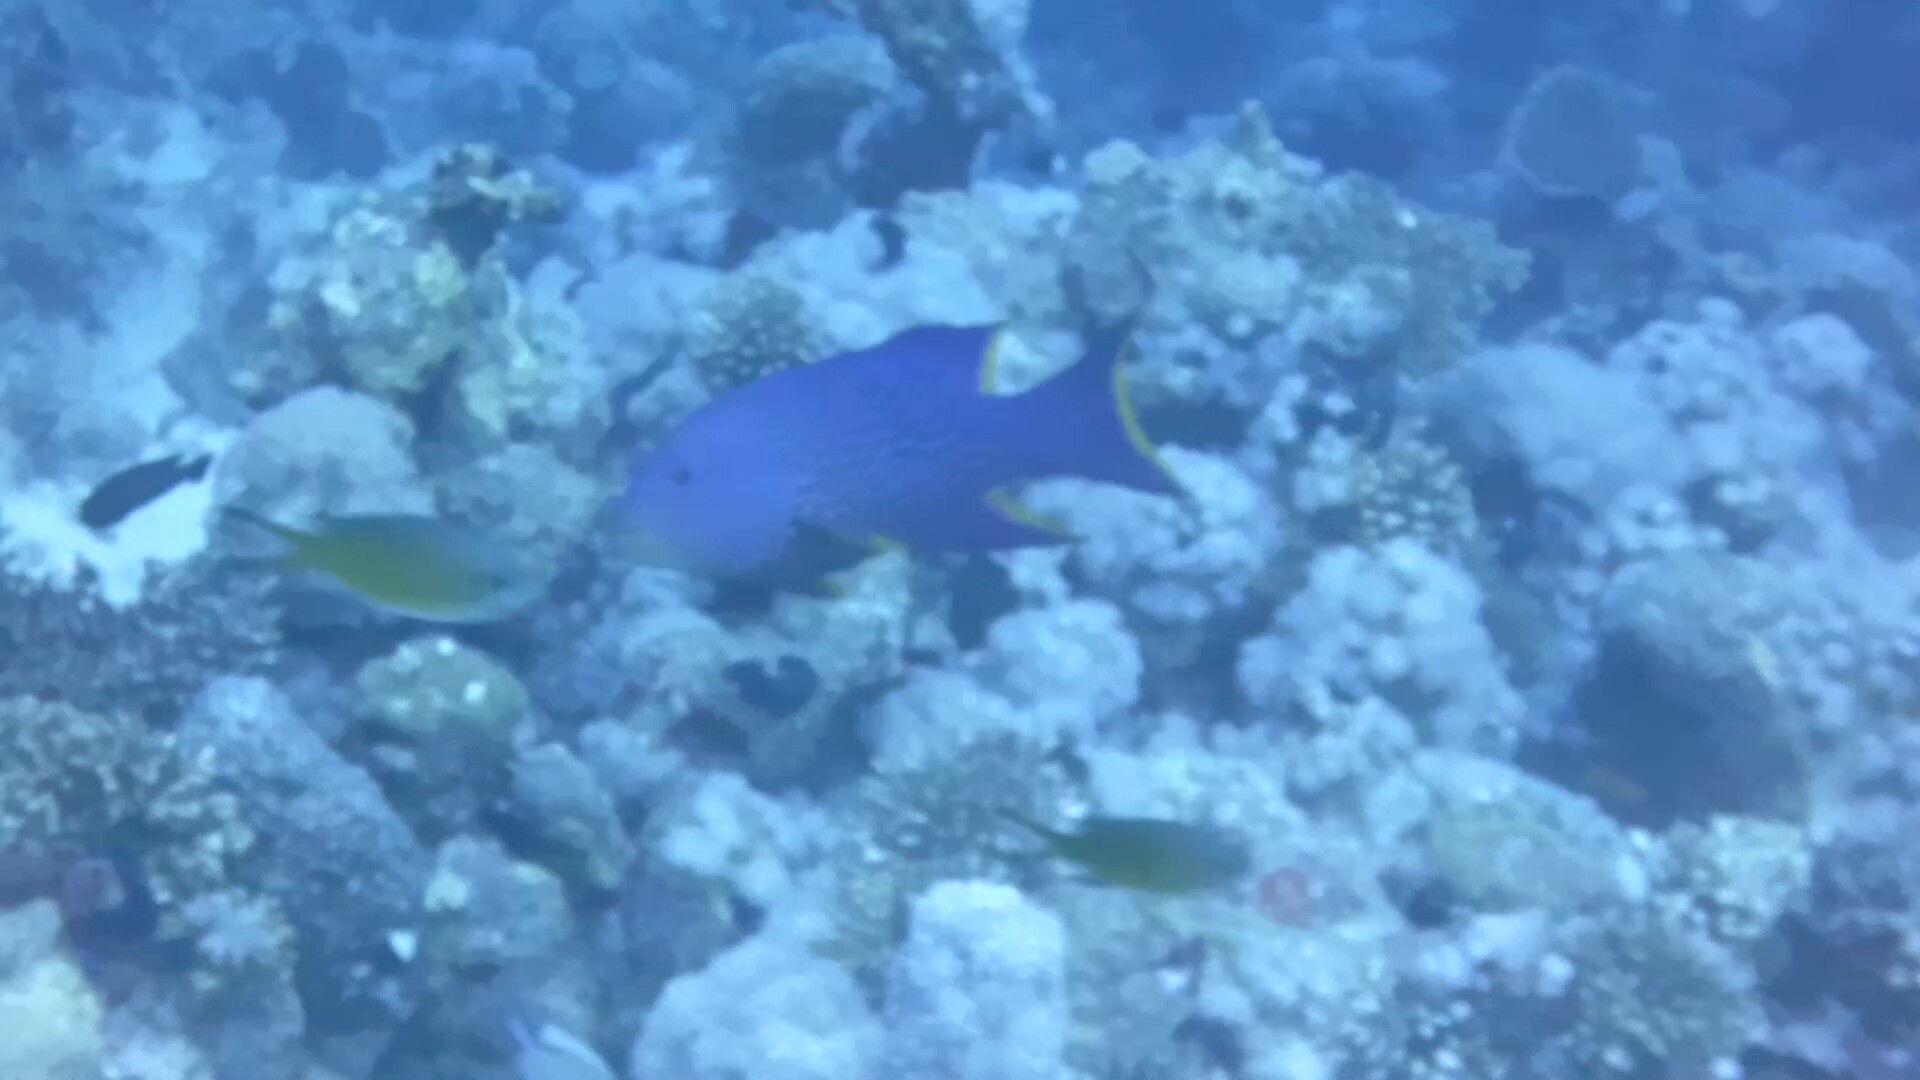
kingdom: Animalia
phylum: Chordata
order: Perciformes
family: Serranidae
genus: Variola
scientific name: Variola louti
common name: Yellow-edged lyretail
